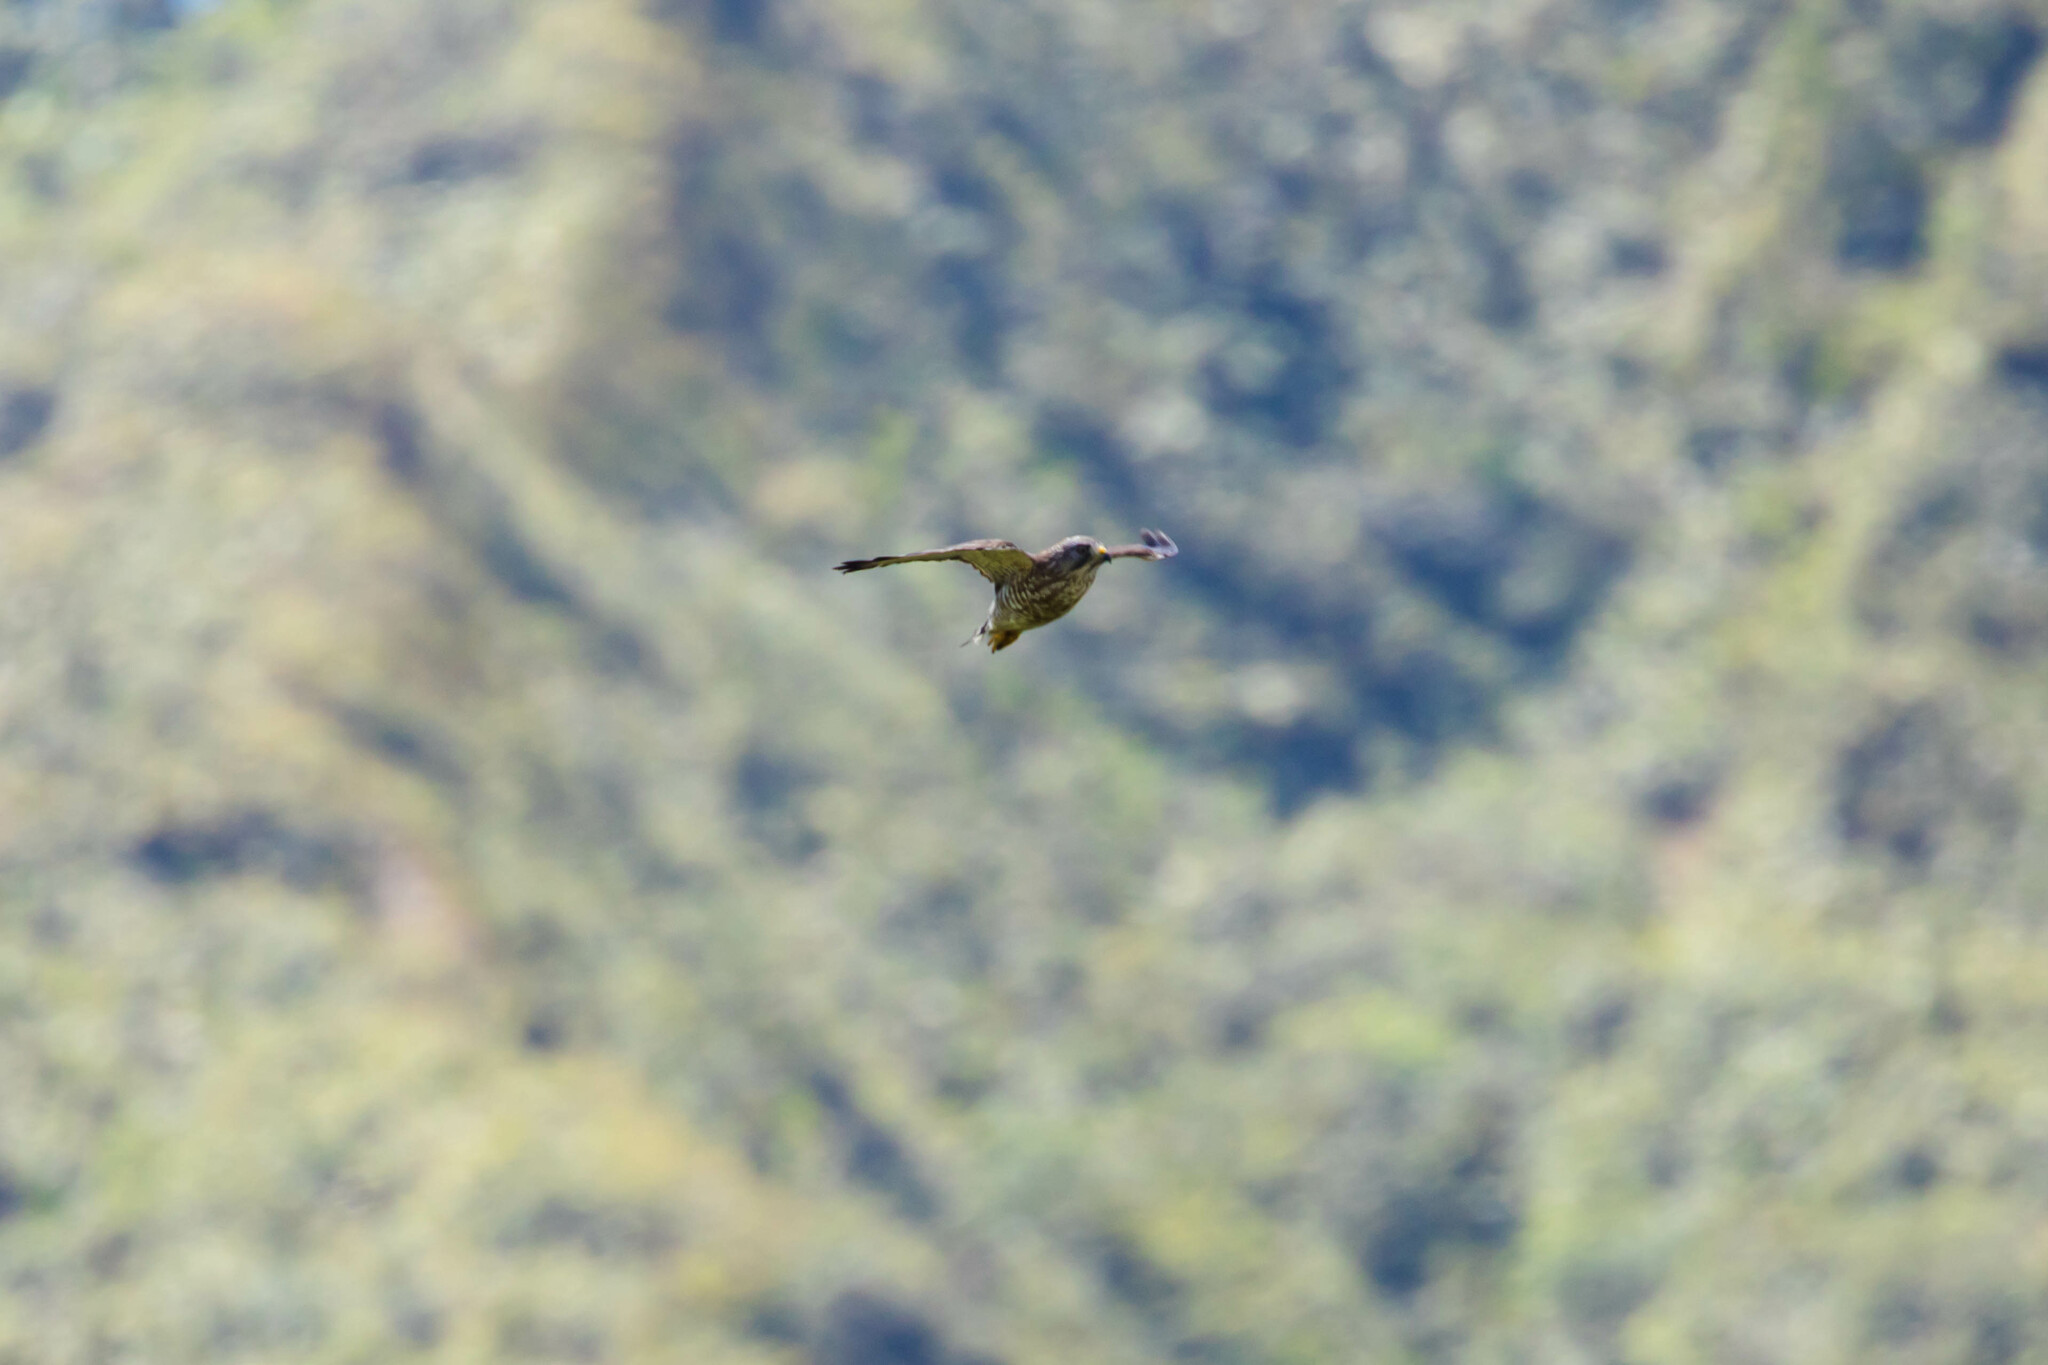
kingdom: Animalia
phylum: Chordata
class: Aves
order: Accipitriformes
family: Accipitridae
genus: Buteo
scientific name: Buteo platypterus
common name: Broad-winged hawk
